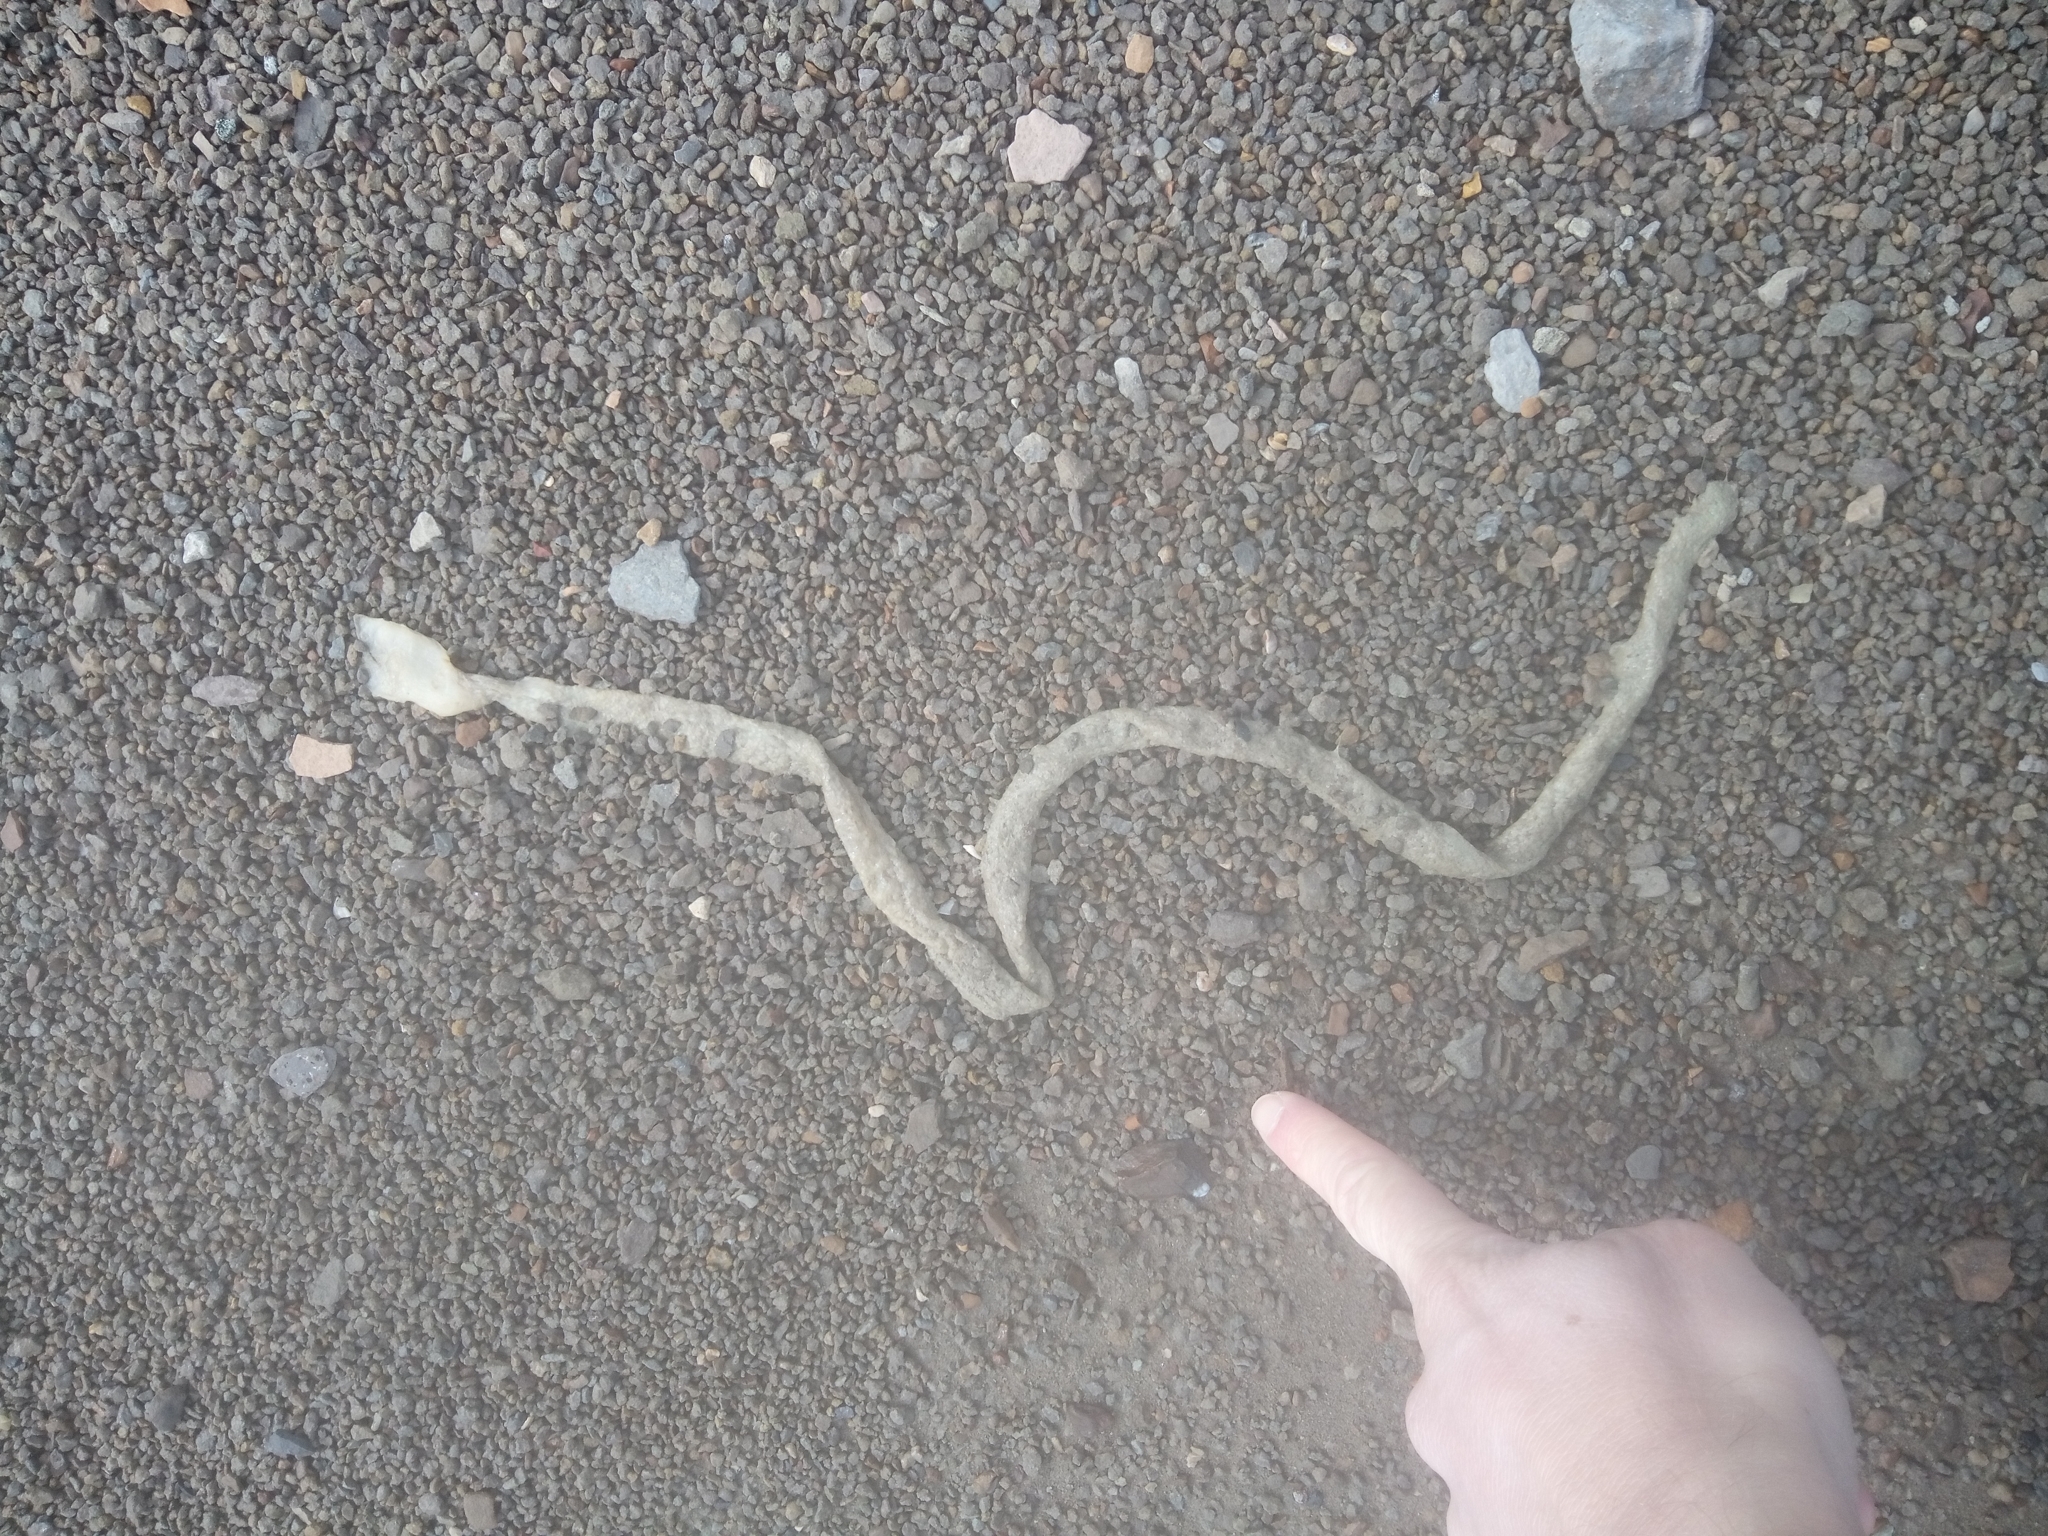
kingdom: Animalia
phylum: Chordata
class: Ascidiacea
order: Aplousobranchia
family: Holozoidae
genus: Distaplia
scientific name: Distaplia cylindrica
